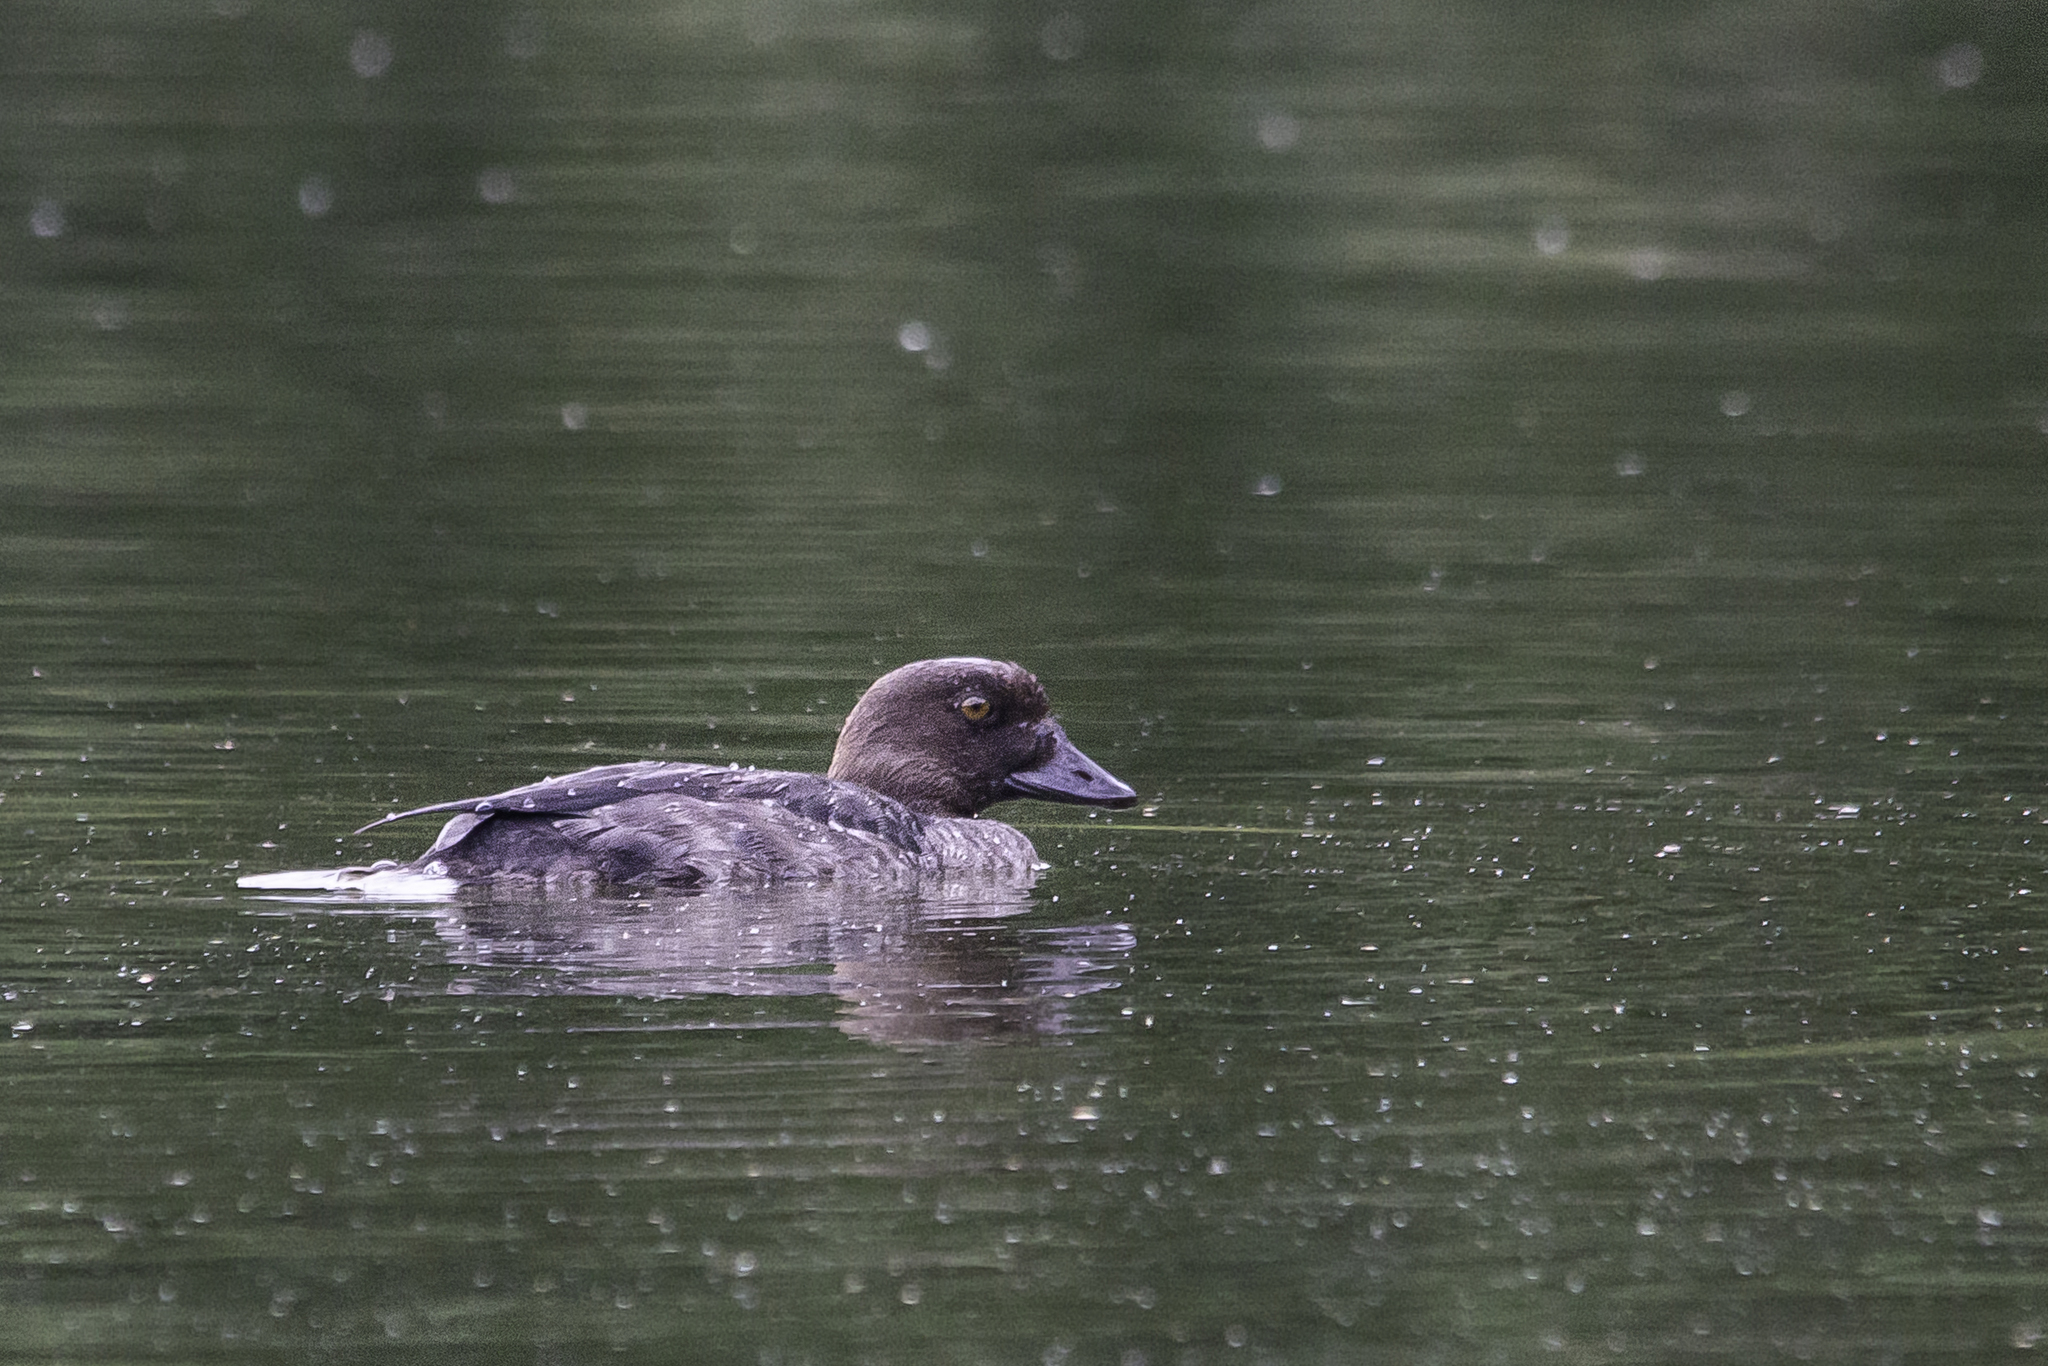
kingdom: Animalia
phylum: Chordata
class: Aves
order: Anseriformes
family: Anatidae
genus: Bucephala
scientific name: Bucephala clangula
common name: Common goldeneye
